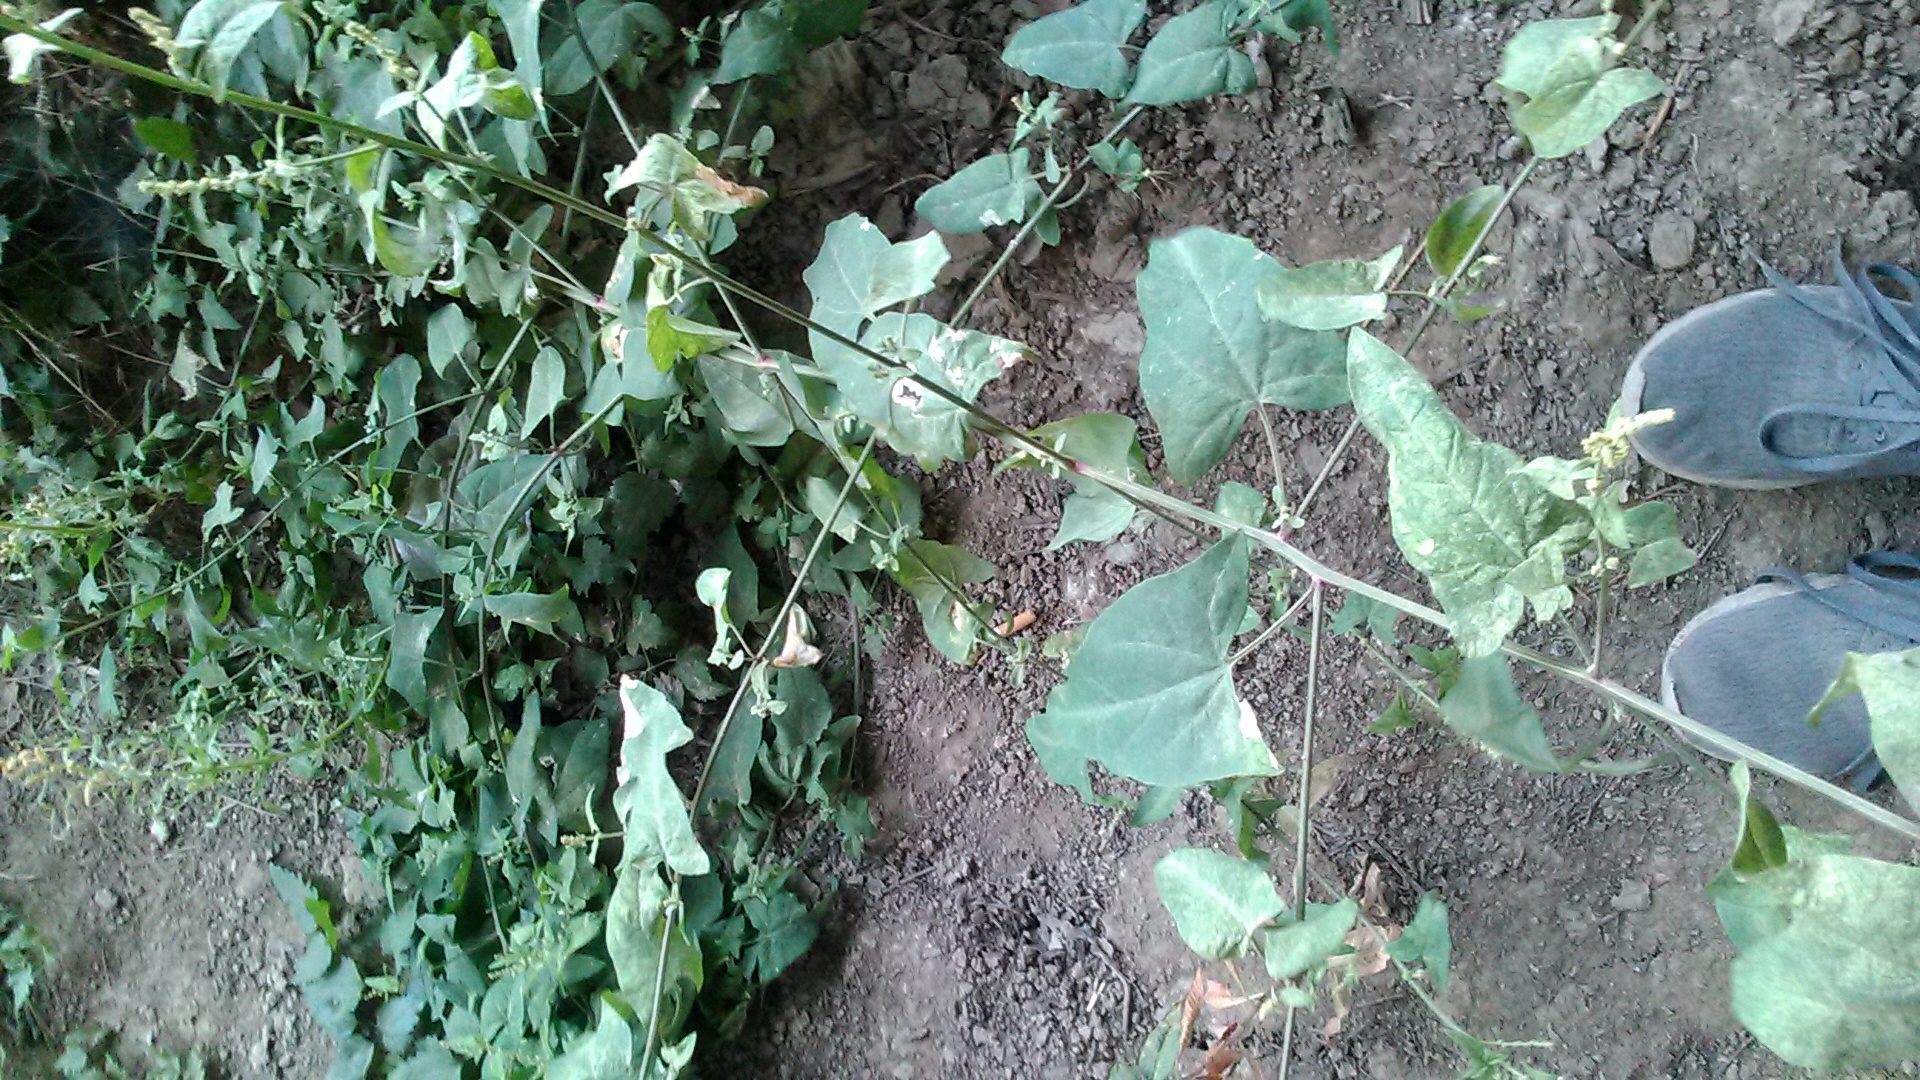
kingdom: Plantae
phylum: Tracheophyta
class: Magnoliopsida
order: Caryophyllales
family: Amaranthaceae
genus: Atriplex
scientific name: Atriplex prostrata
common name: Spear-leaved orache
